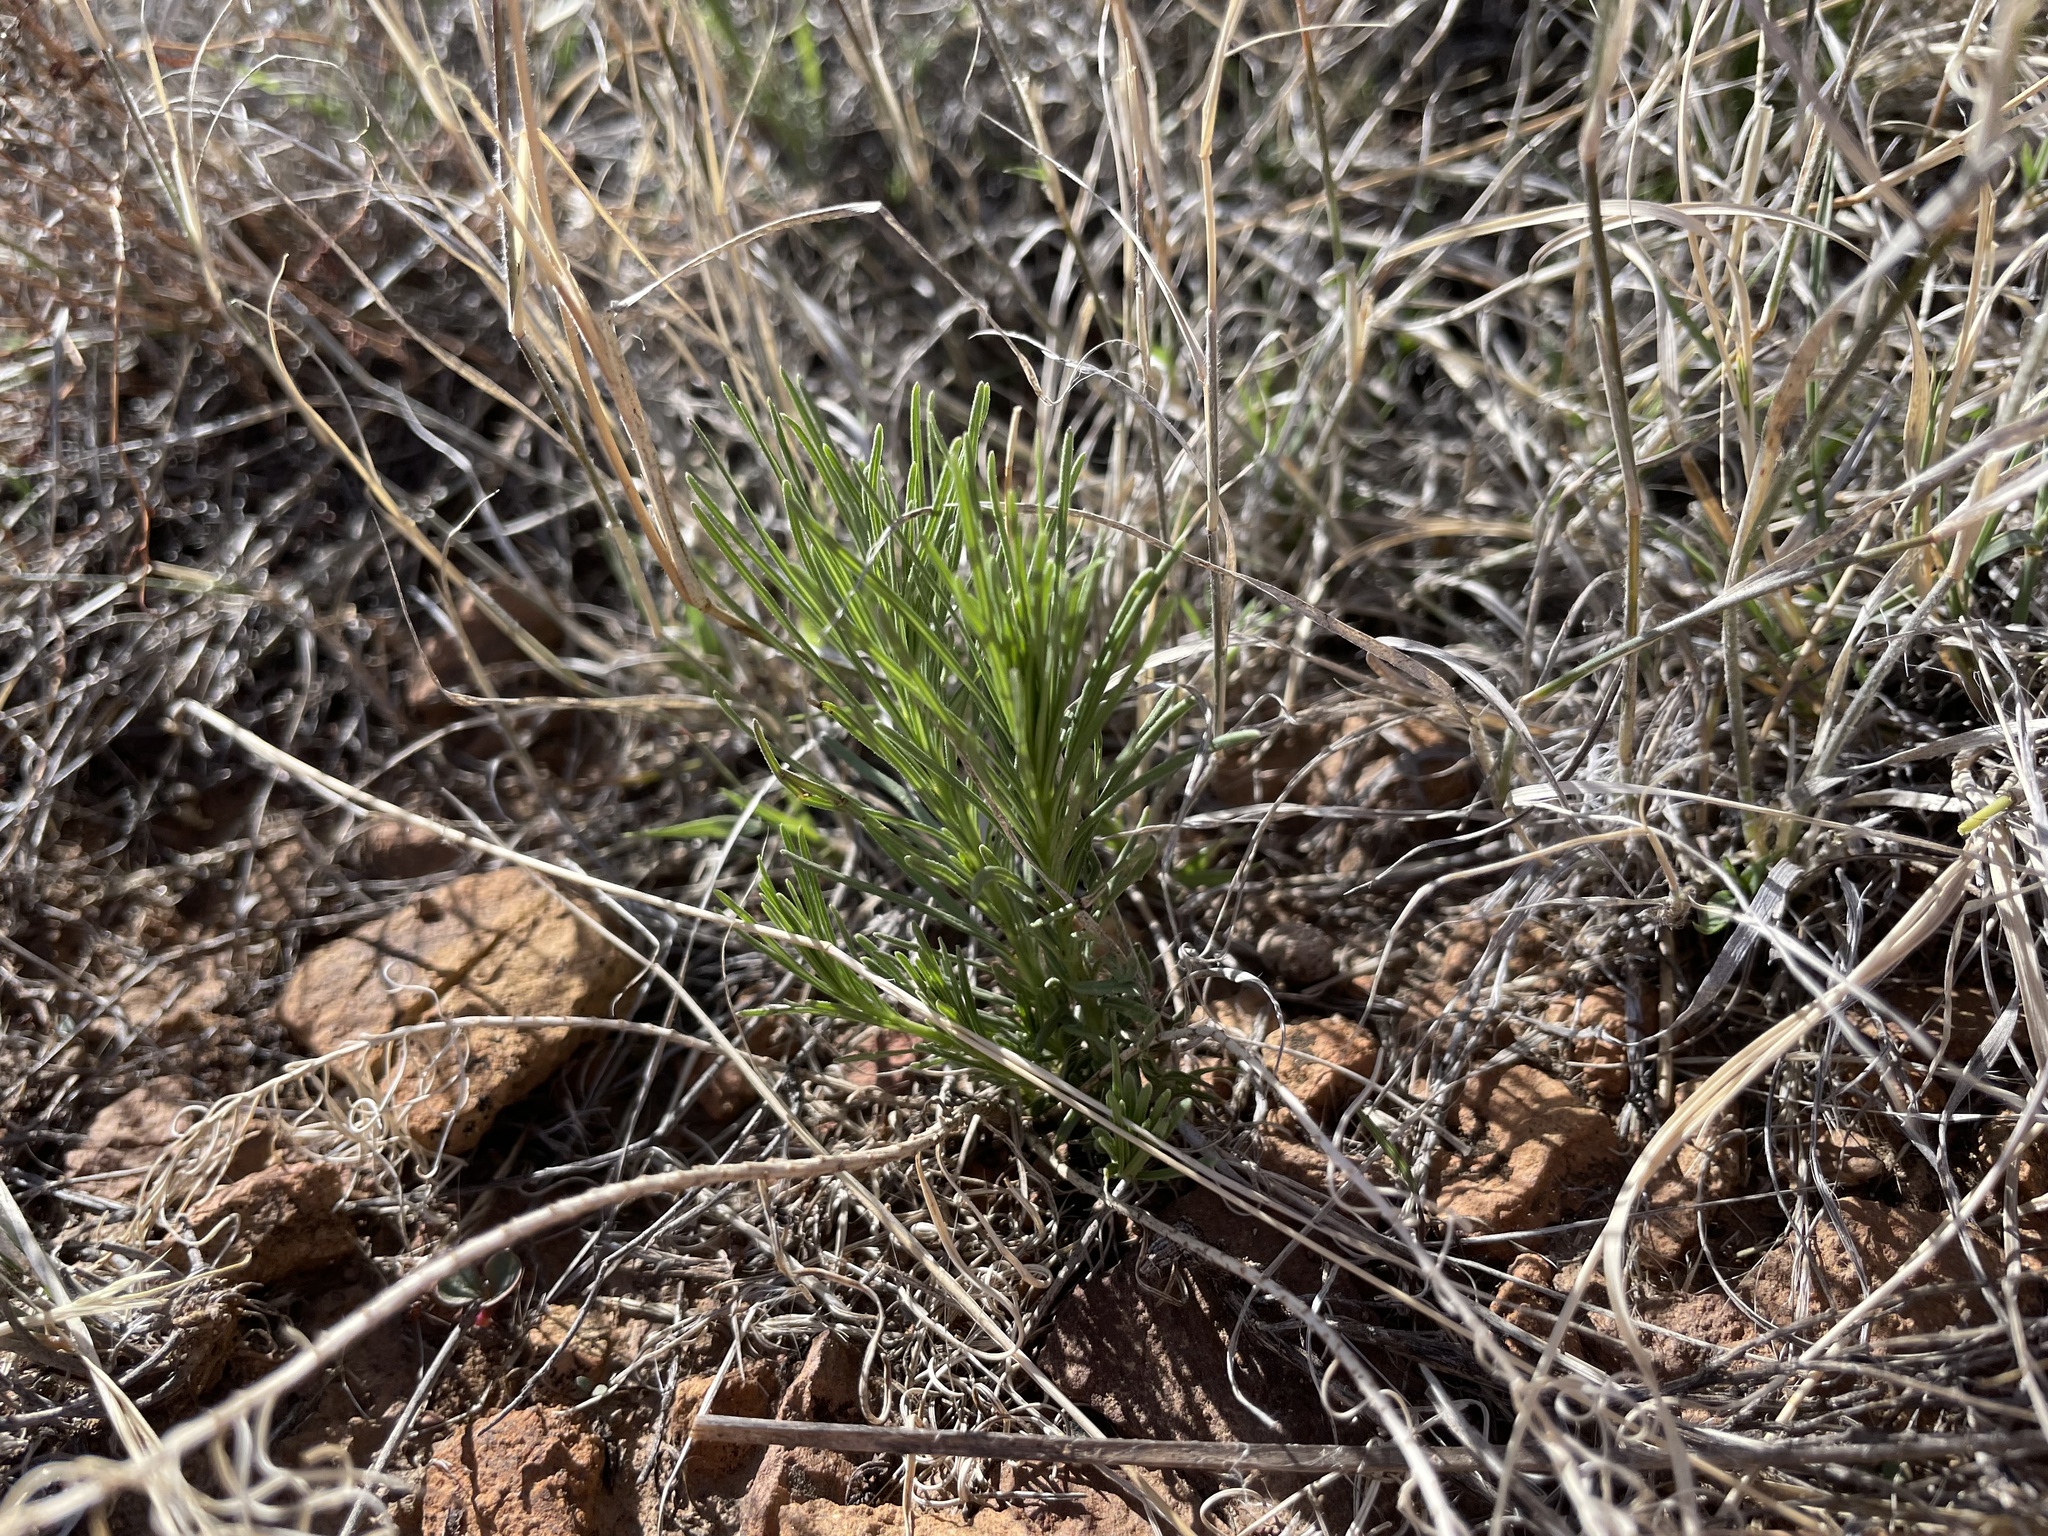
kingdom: Plantae
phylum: Tracheophyta
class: Magnoliopsida
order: Gentianales
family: Apocynaceae
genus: Asclepias
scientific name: Asclepias pumila
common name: Dwarf milkweed
